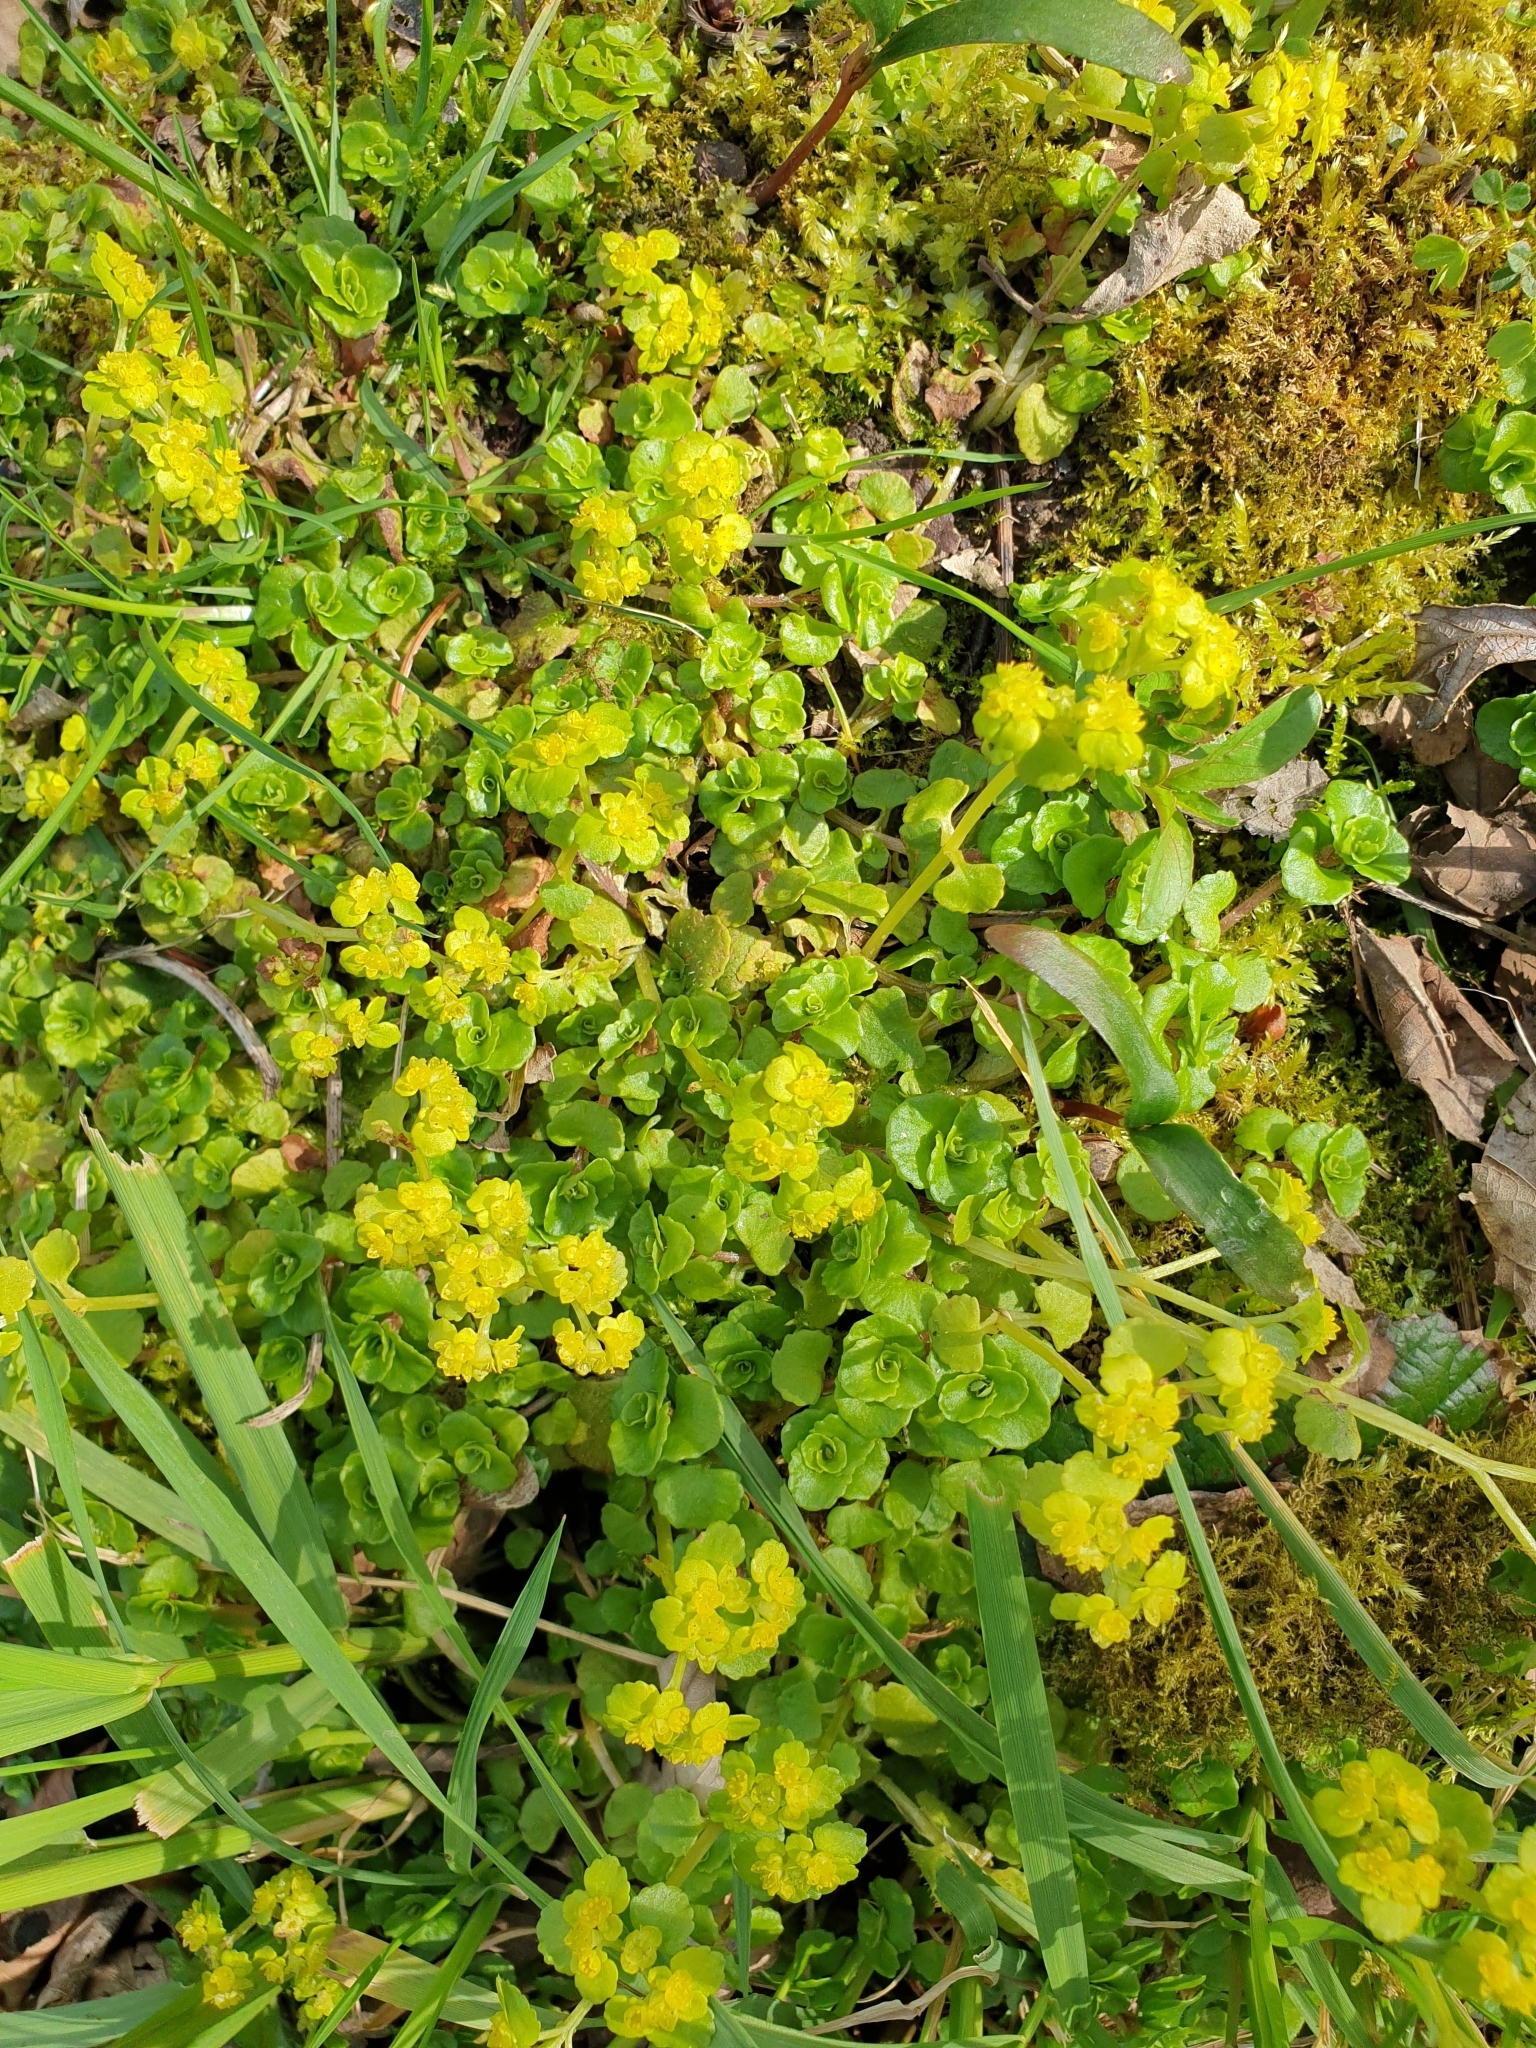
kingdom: Plantae
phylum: Tracheophyta
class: Magnoliopsida
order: Saxifragales
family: Saxifragaceae
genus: Chrysosplenium
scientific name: Chrysosplenium oppositifolium
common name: Opposite-leaved golden-saxifrage
